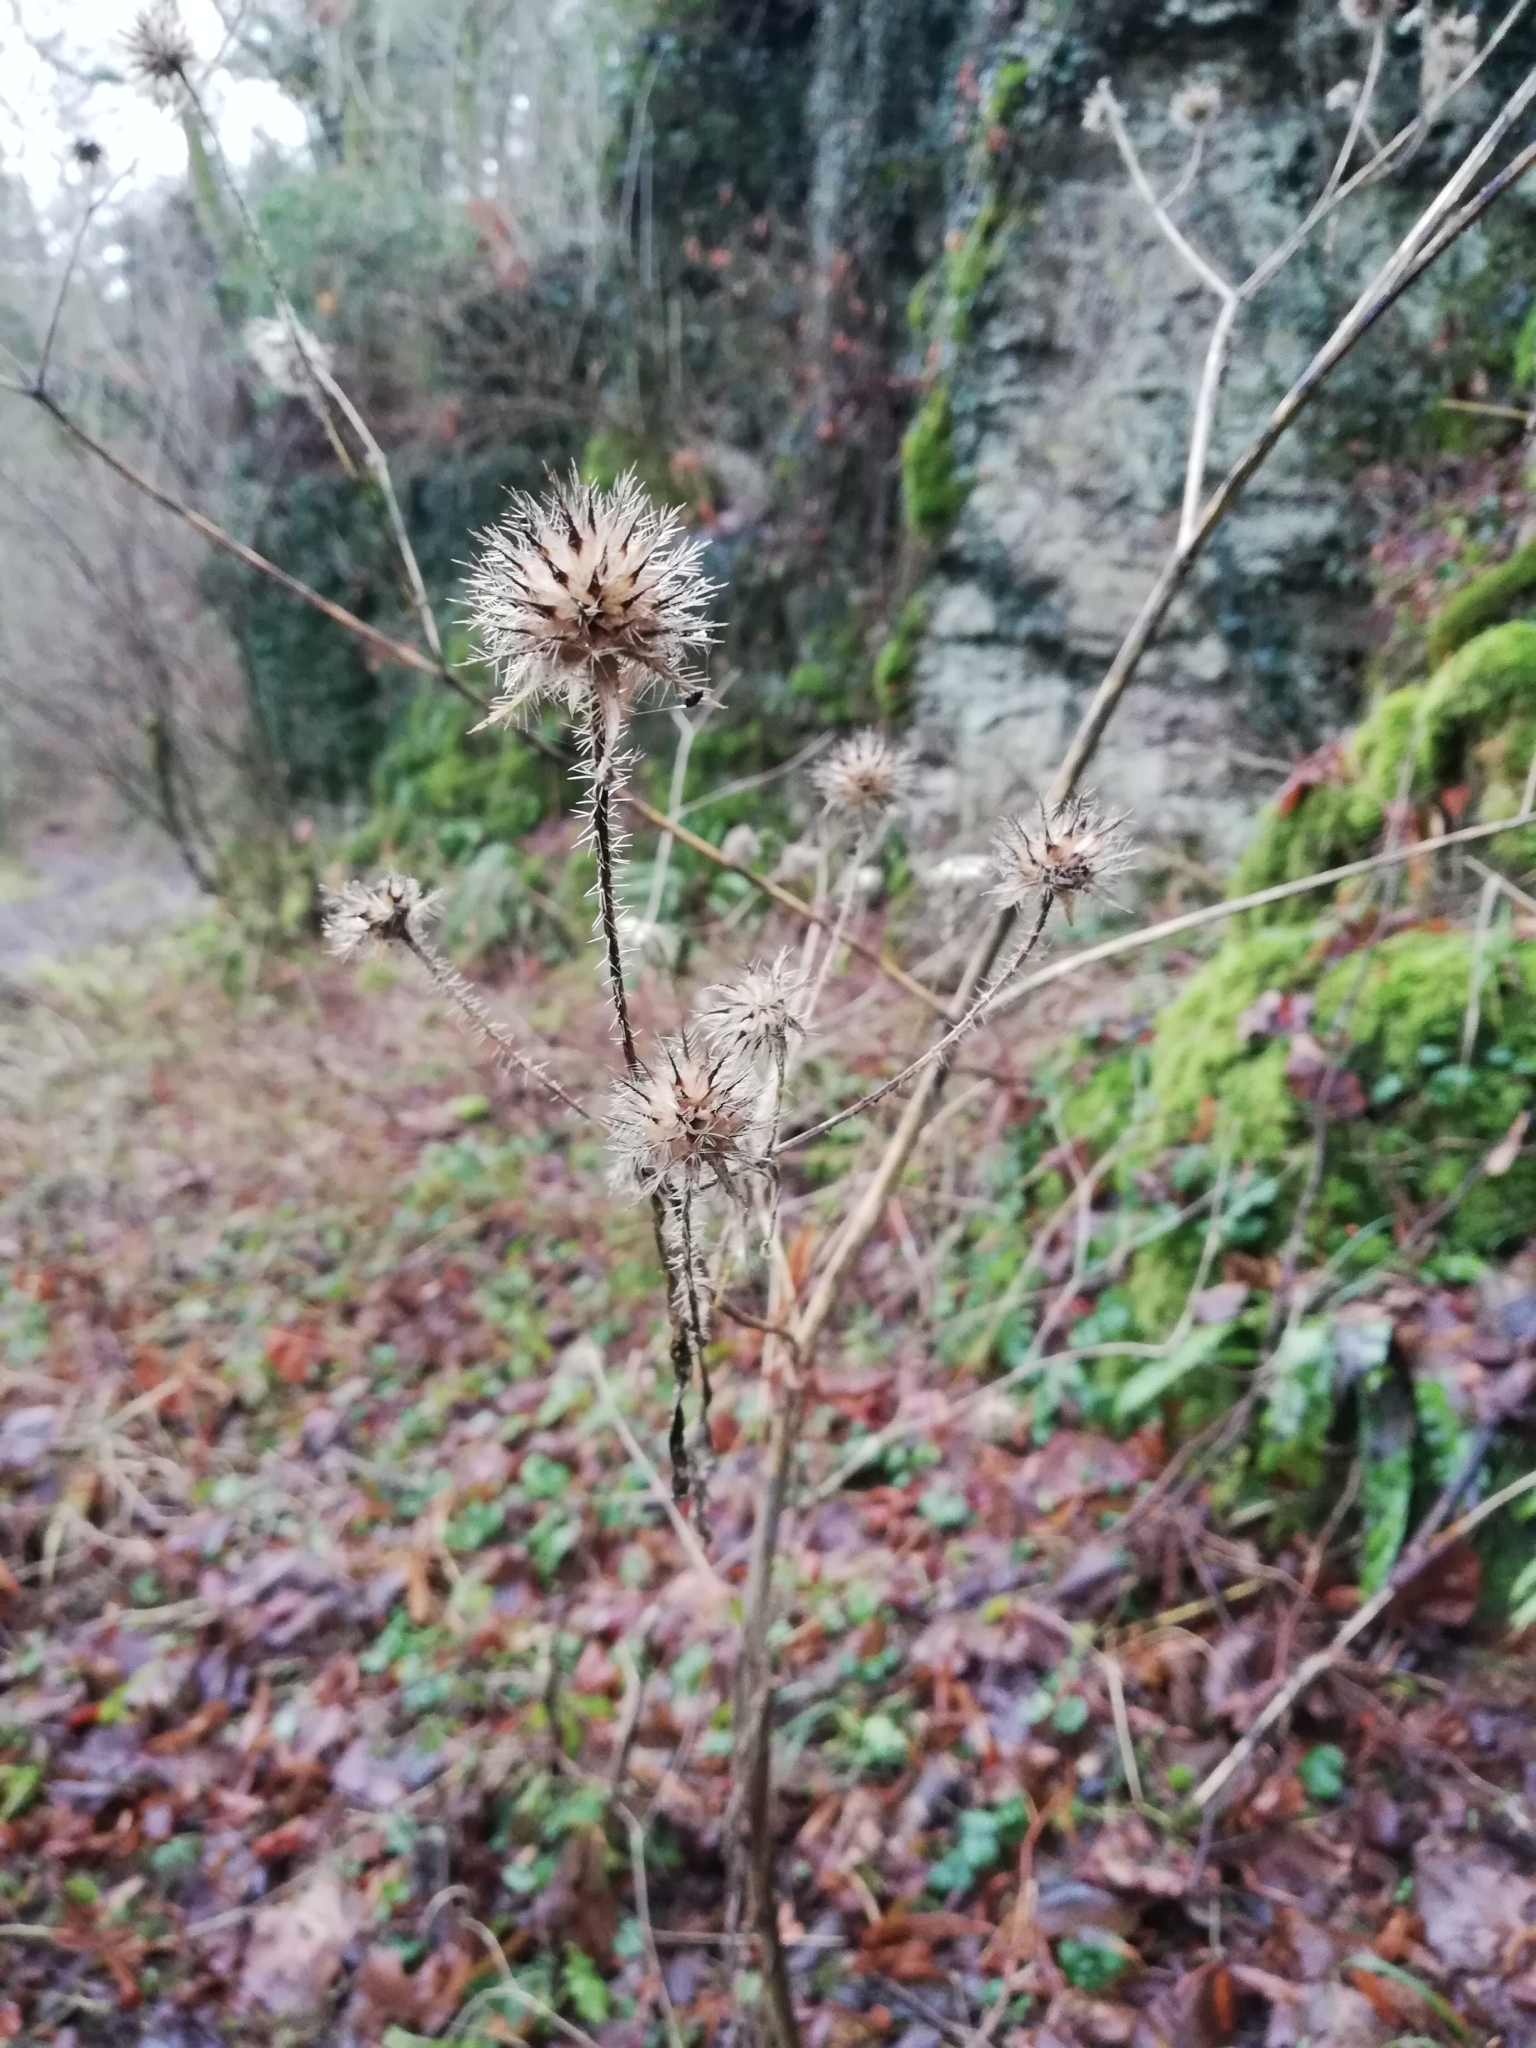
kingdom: Plantae
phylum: Tracheophyta
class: Magnoliopsida
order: Dipsacales
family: Caprifoliaceae
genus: Dipsacus
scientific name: Dipsacus pilosus
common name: Small teasel
